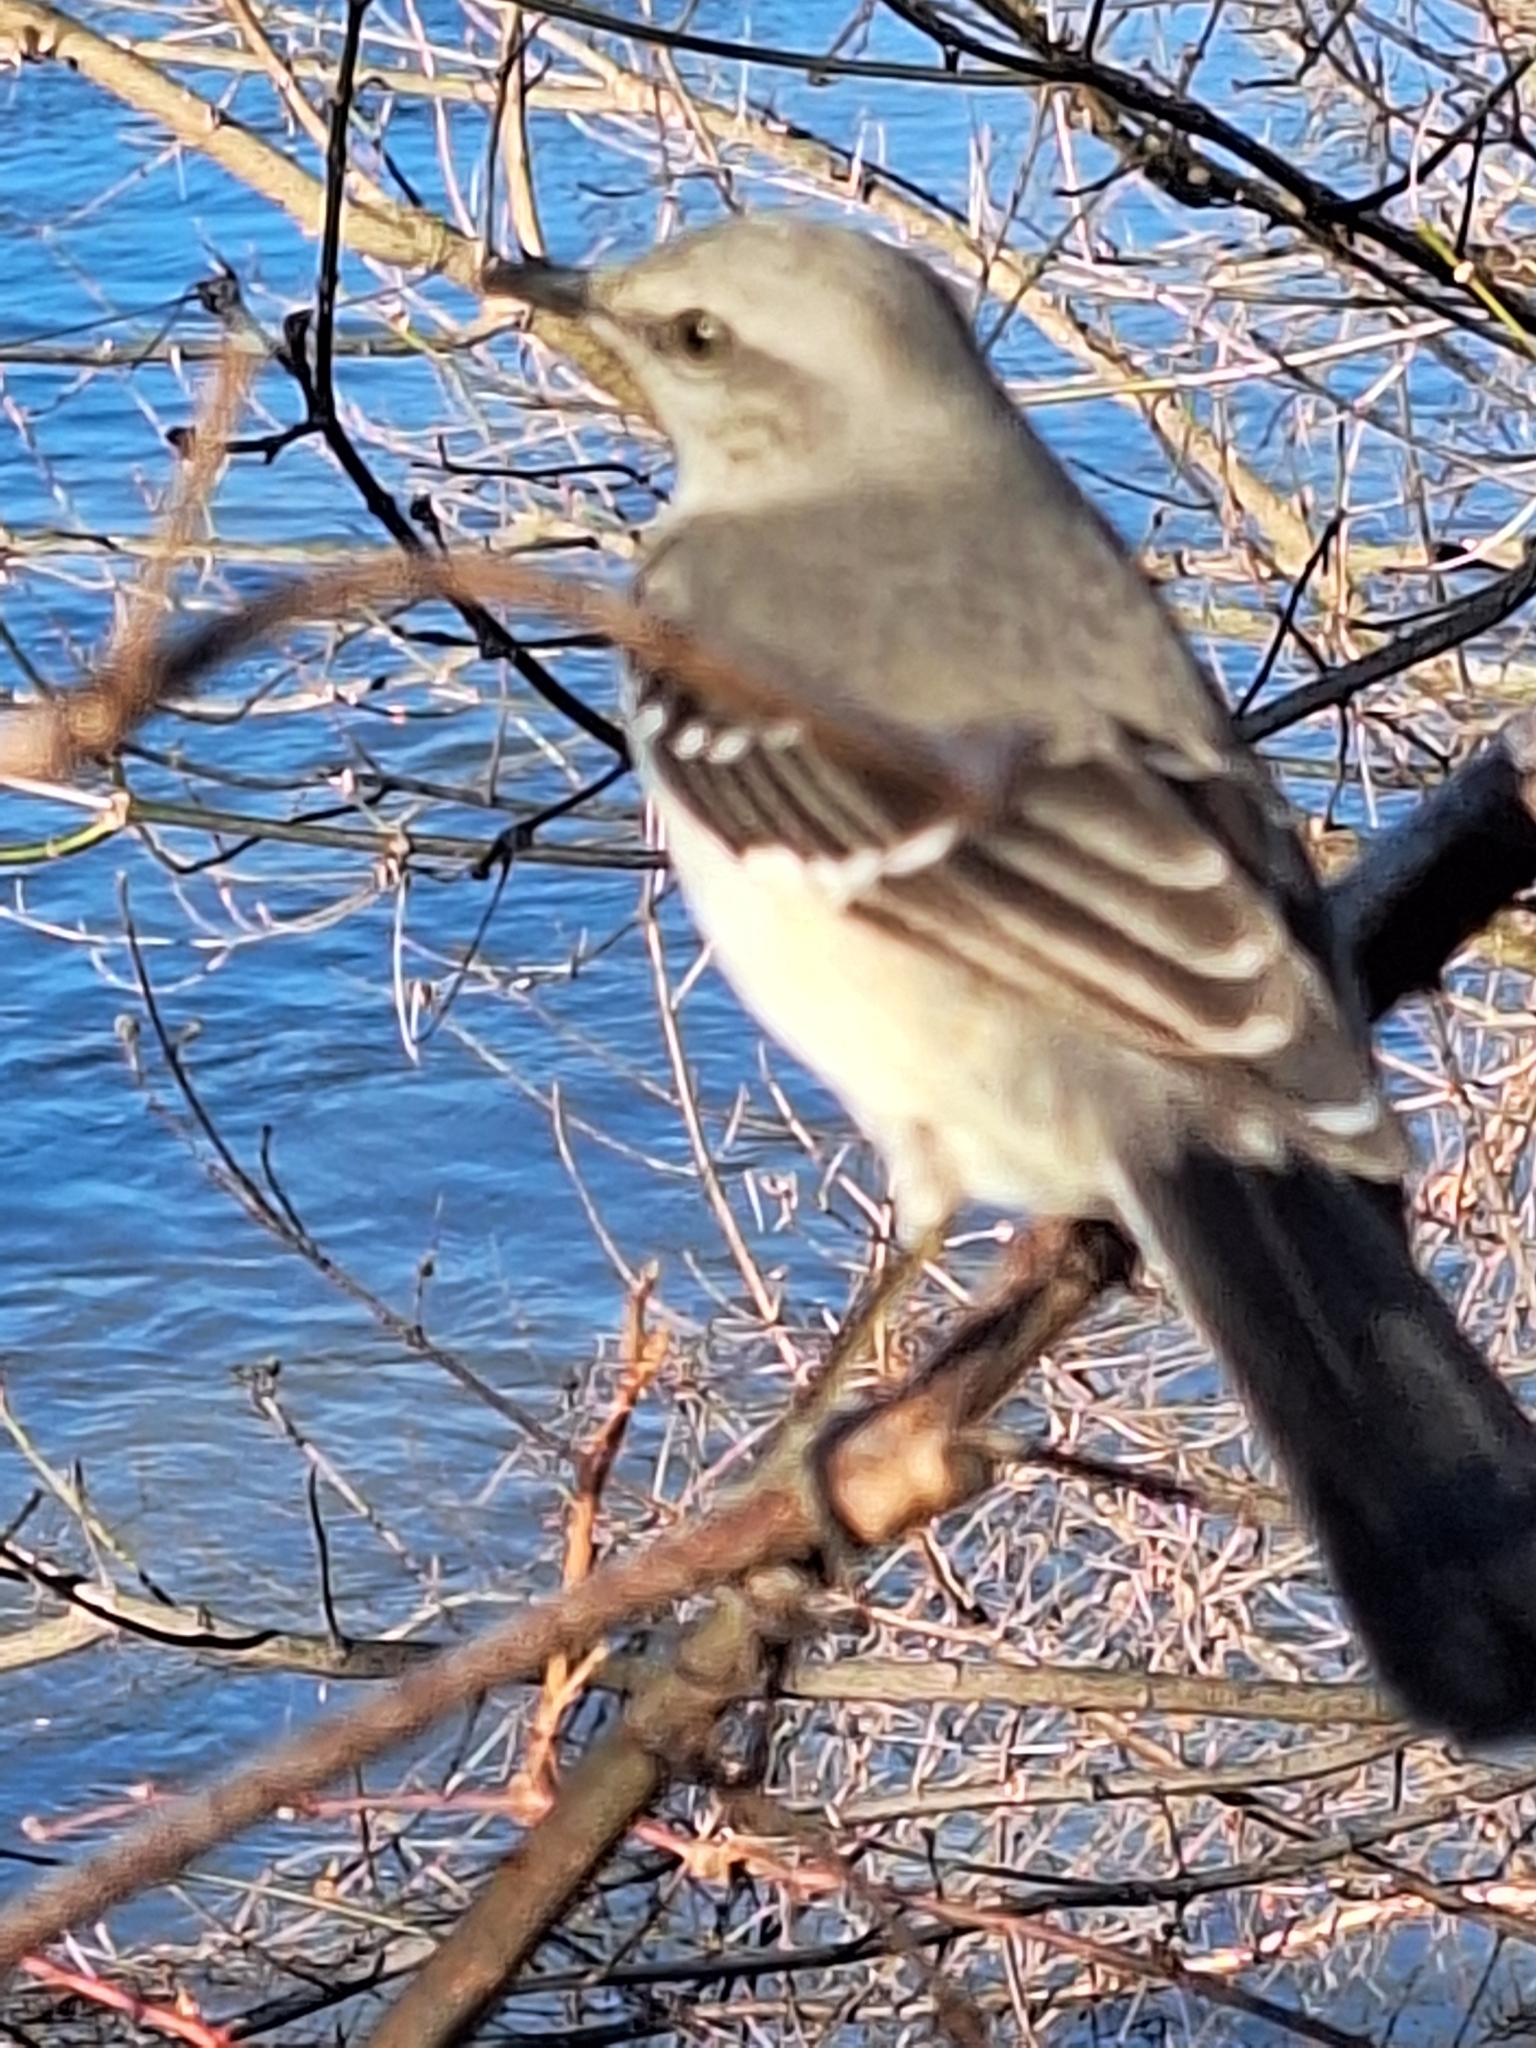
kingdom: Animalia
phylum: Chordata
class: Aves
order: Passeriformes
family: Mimidae
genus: Mimus
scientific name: Mimus polyglottos
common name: Northern mockingbird
